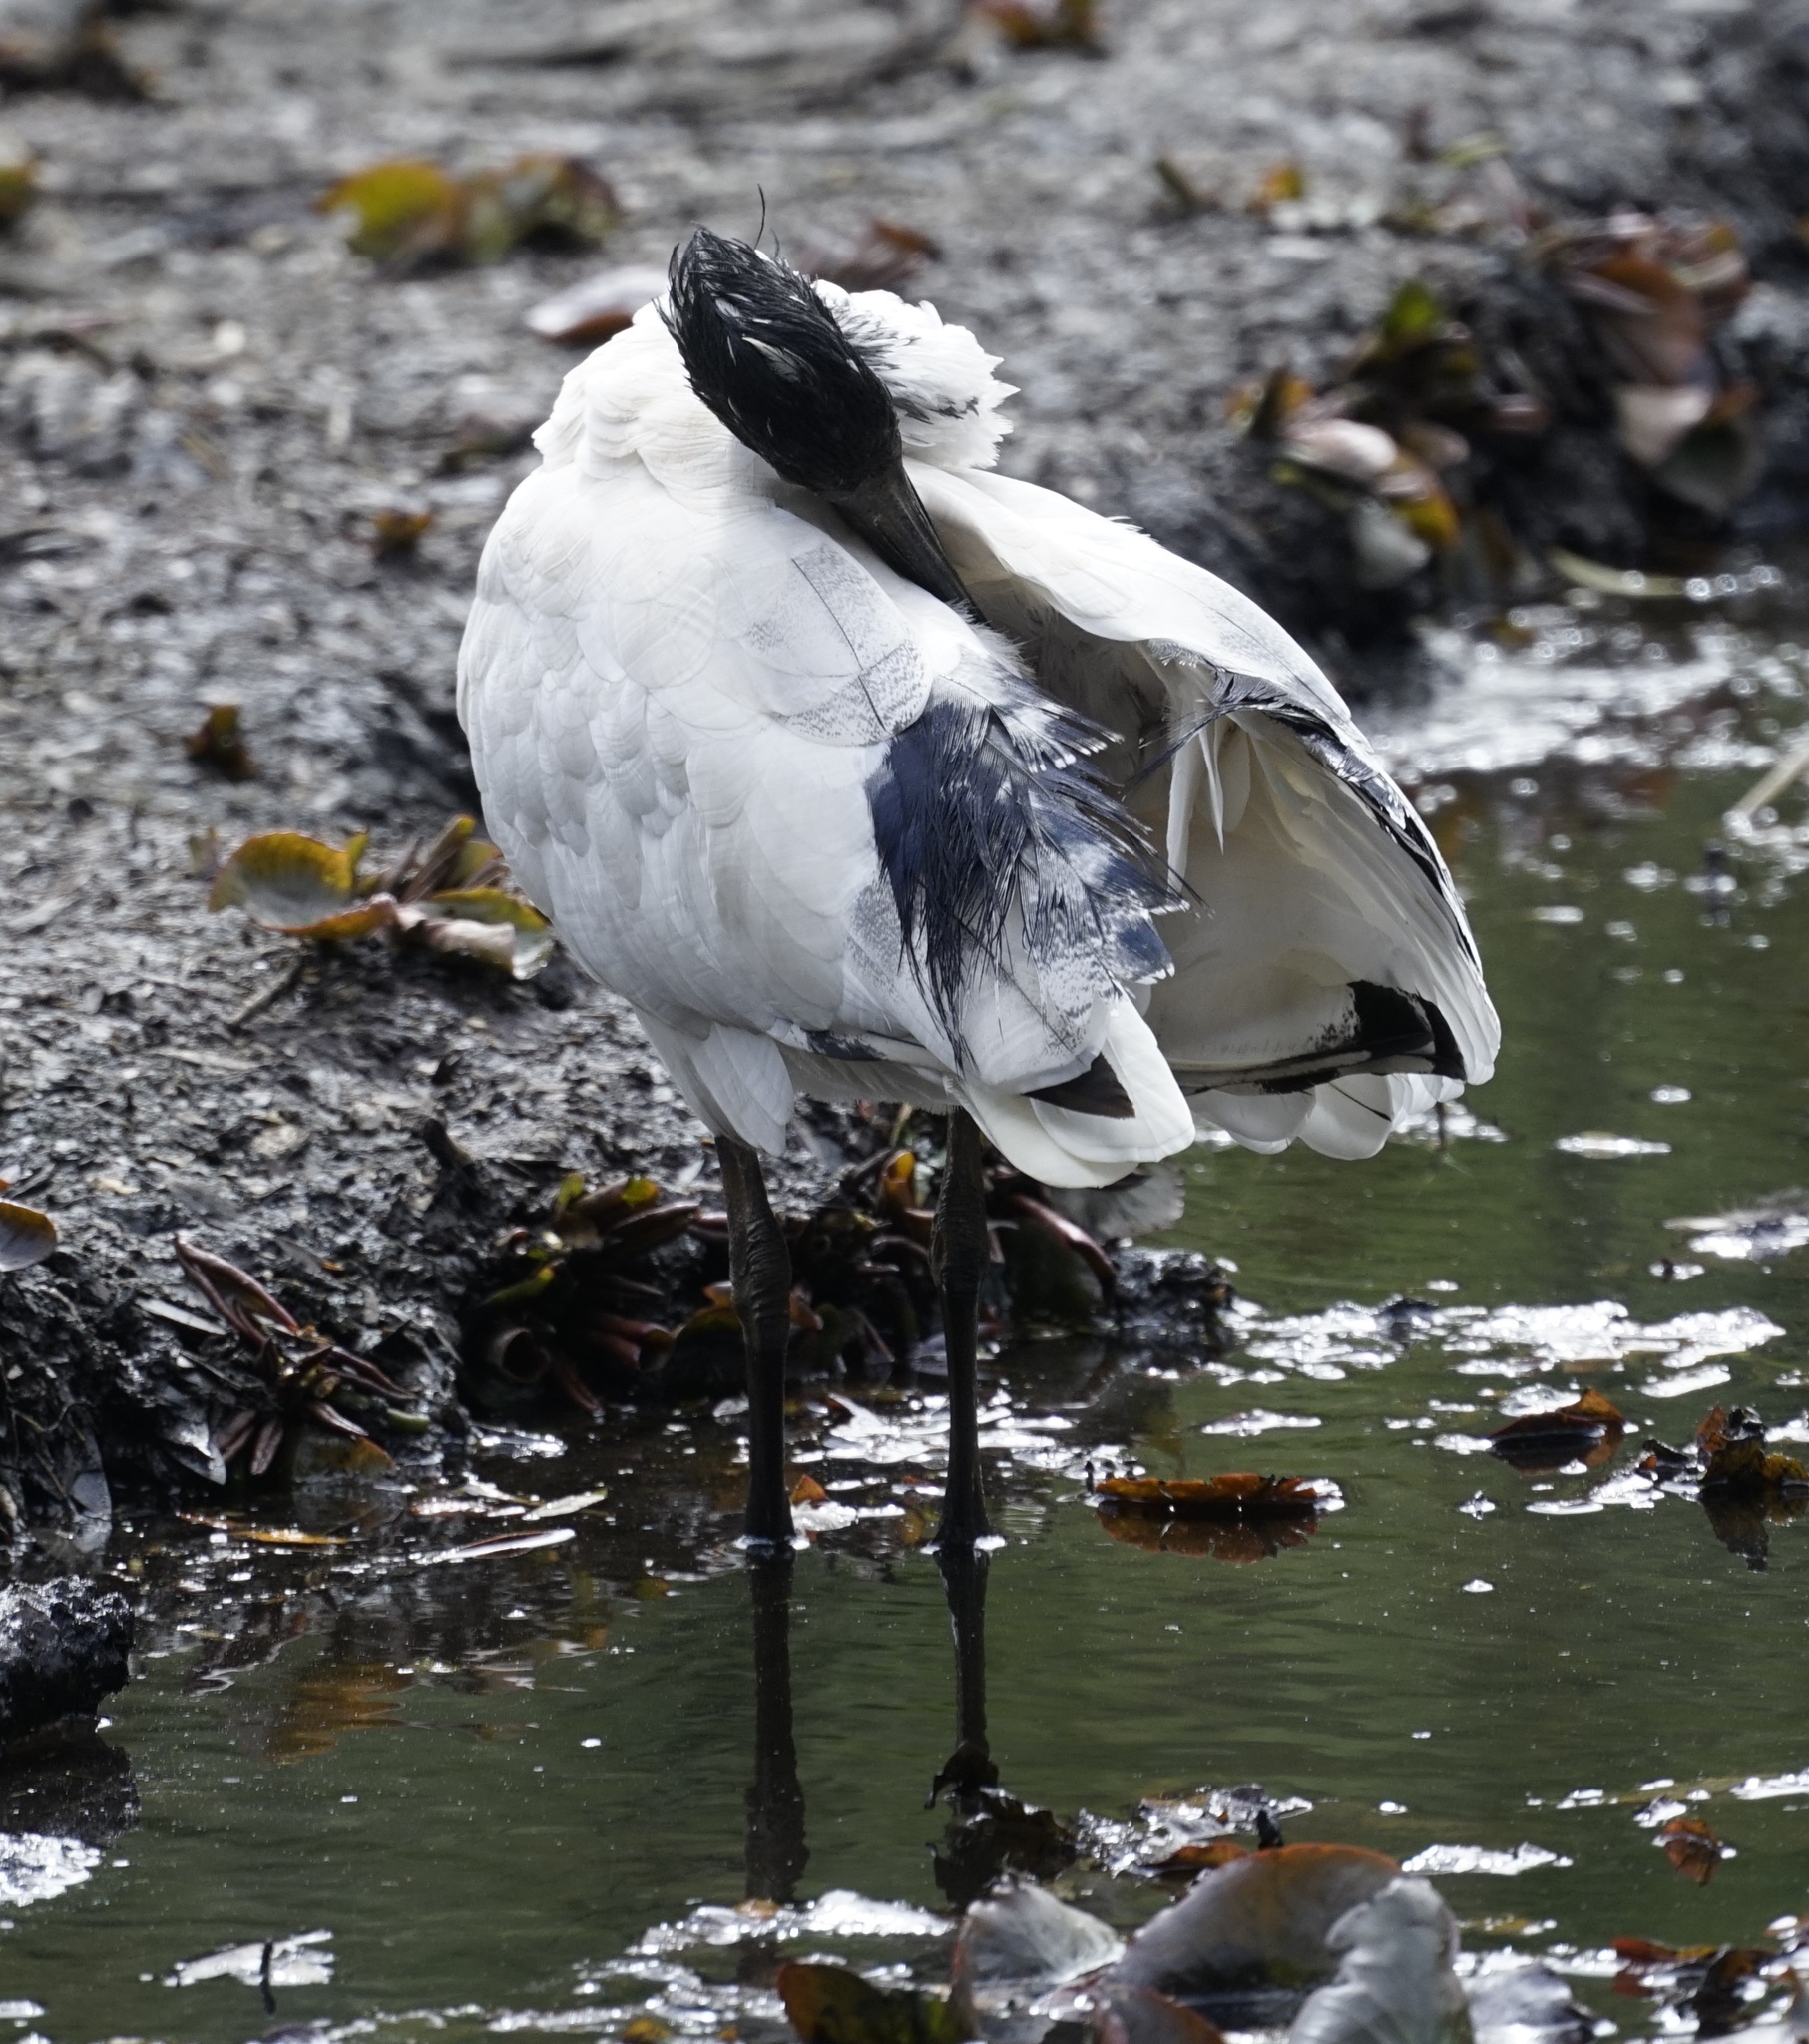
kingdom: Animalia
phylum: Chordata
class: Aves
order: Pelecaniformes
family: Threskiornithidae
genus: Threskiornis
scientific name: Threskiornis molucca
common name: Australian white ibis
